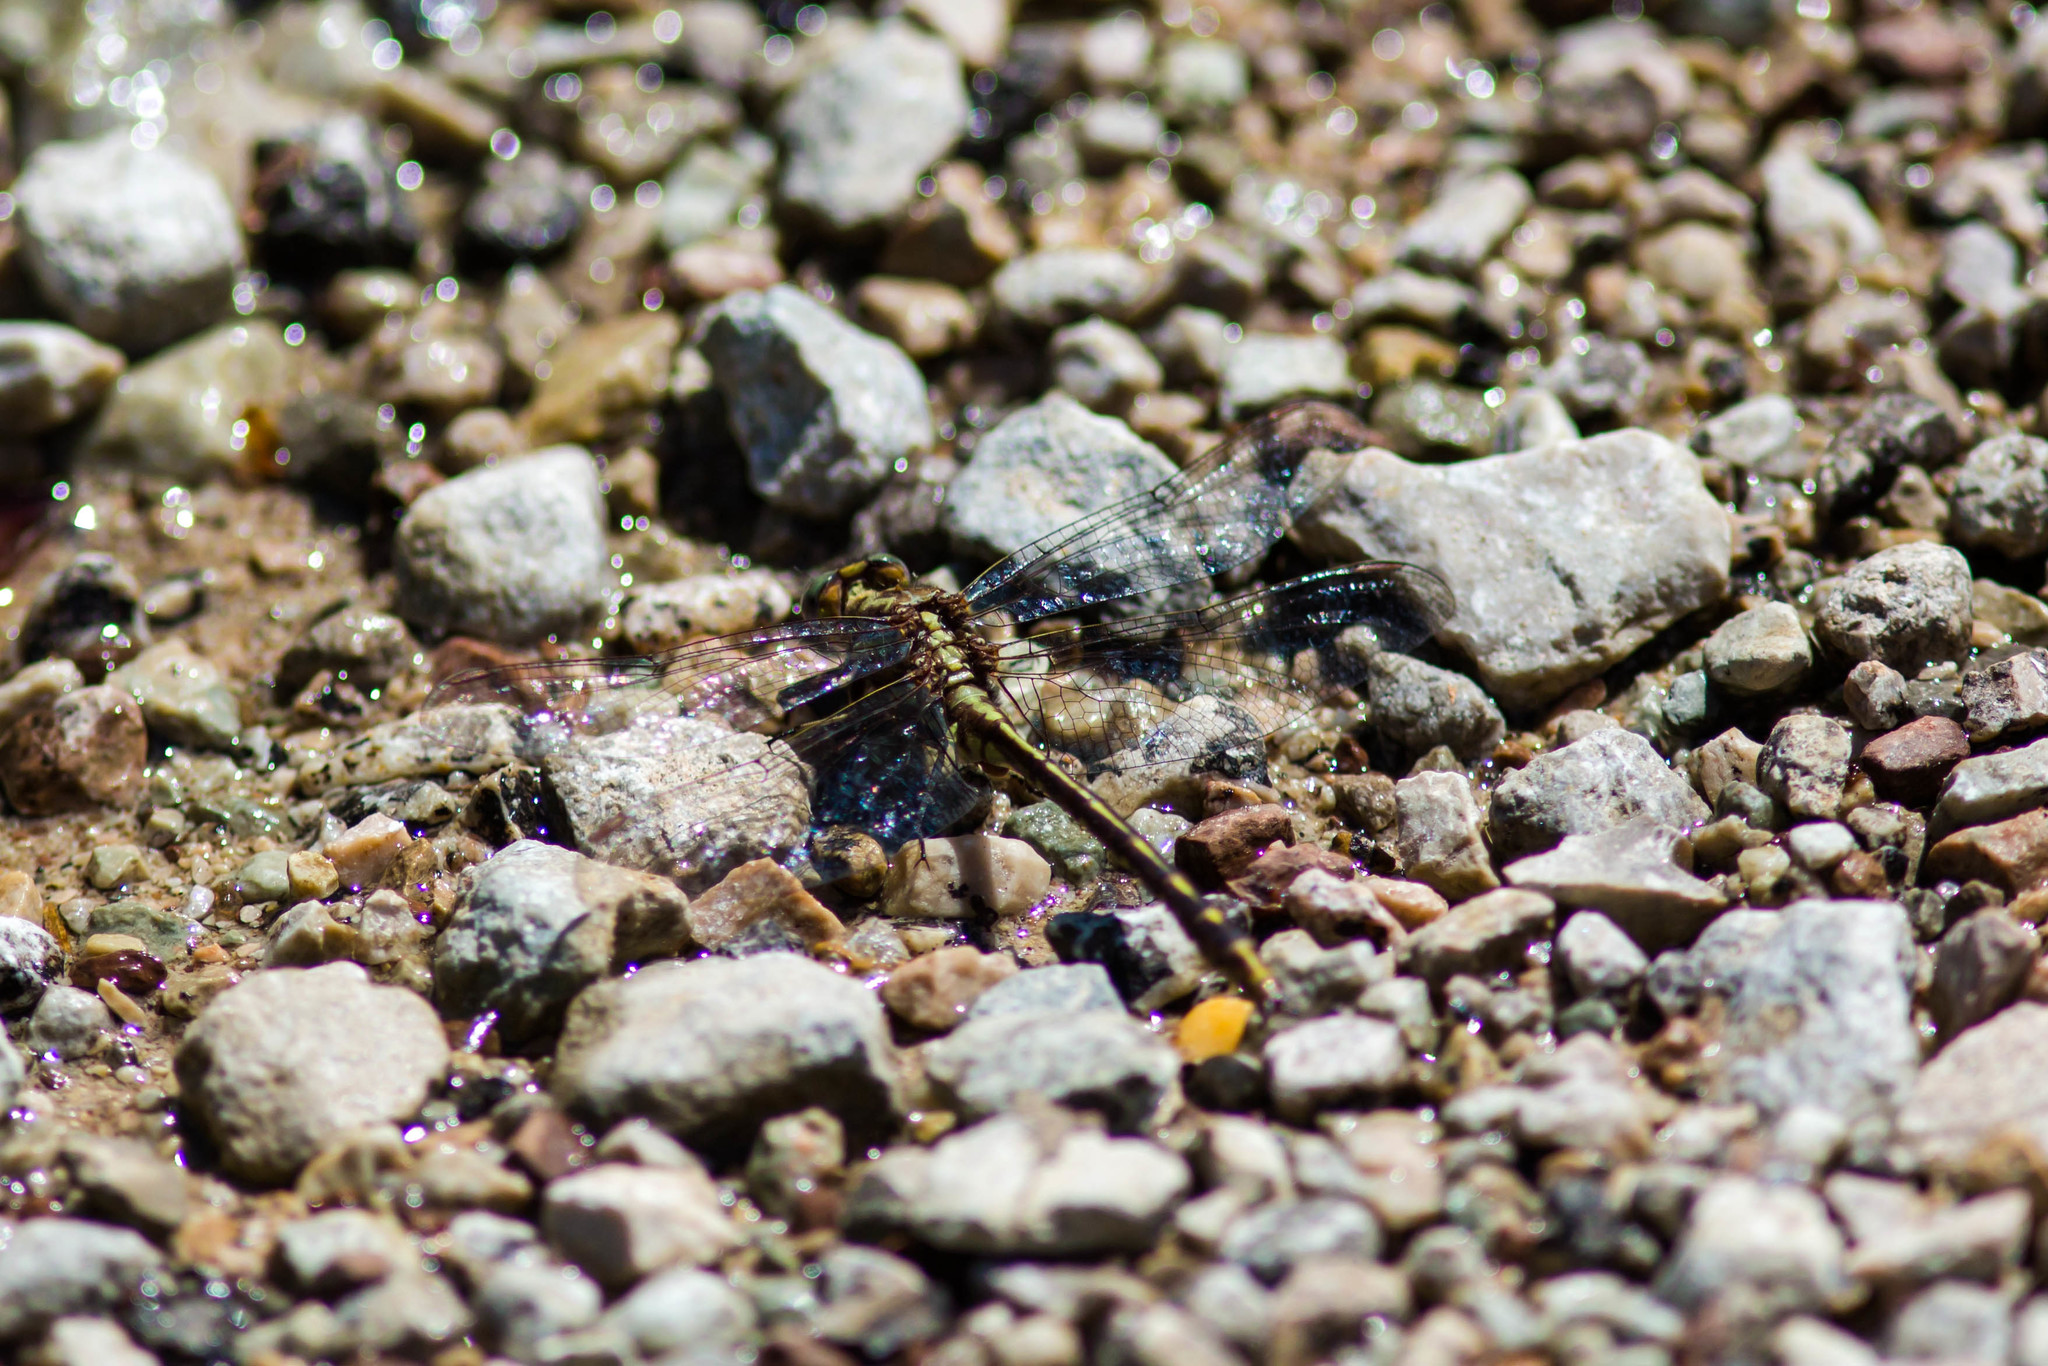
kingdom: Animalia
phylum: Arthropoda
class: Insecta
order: Odonata
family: Gomphidae
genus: Phanogomphus
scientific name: Phanogomphus exilis
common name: Lancet clubtail
